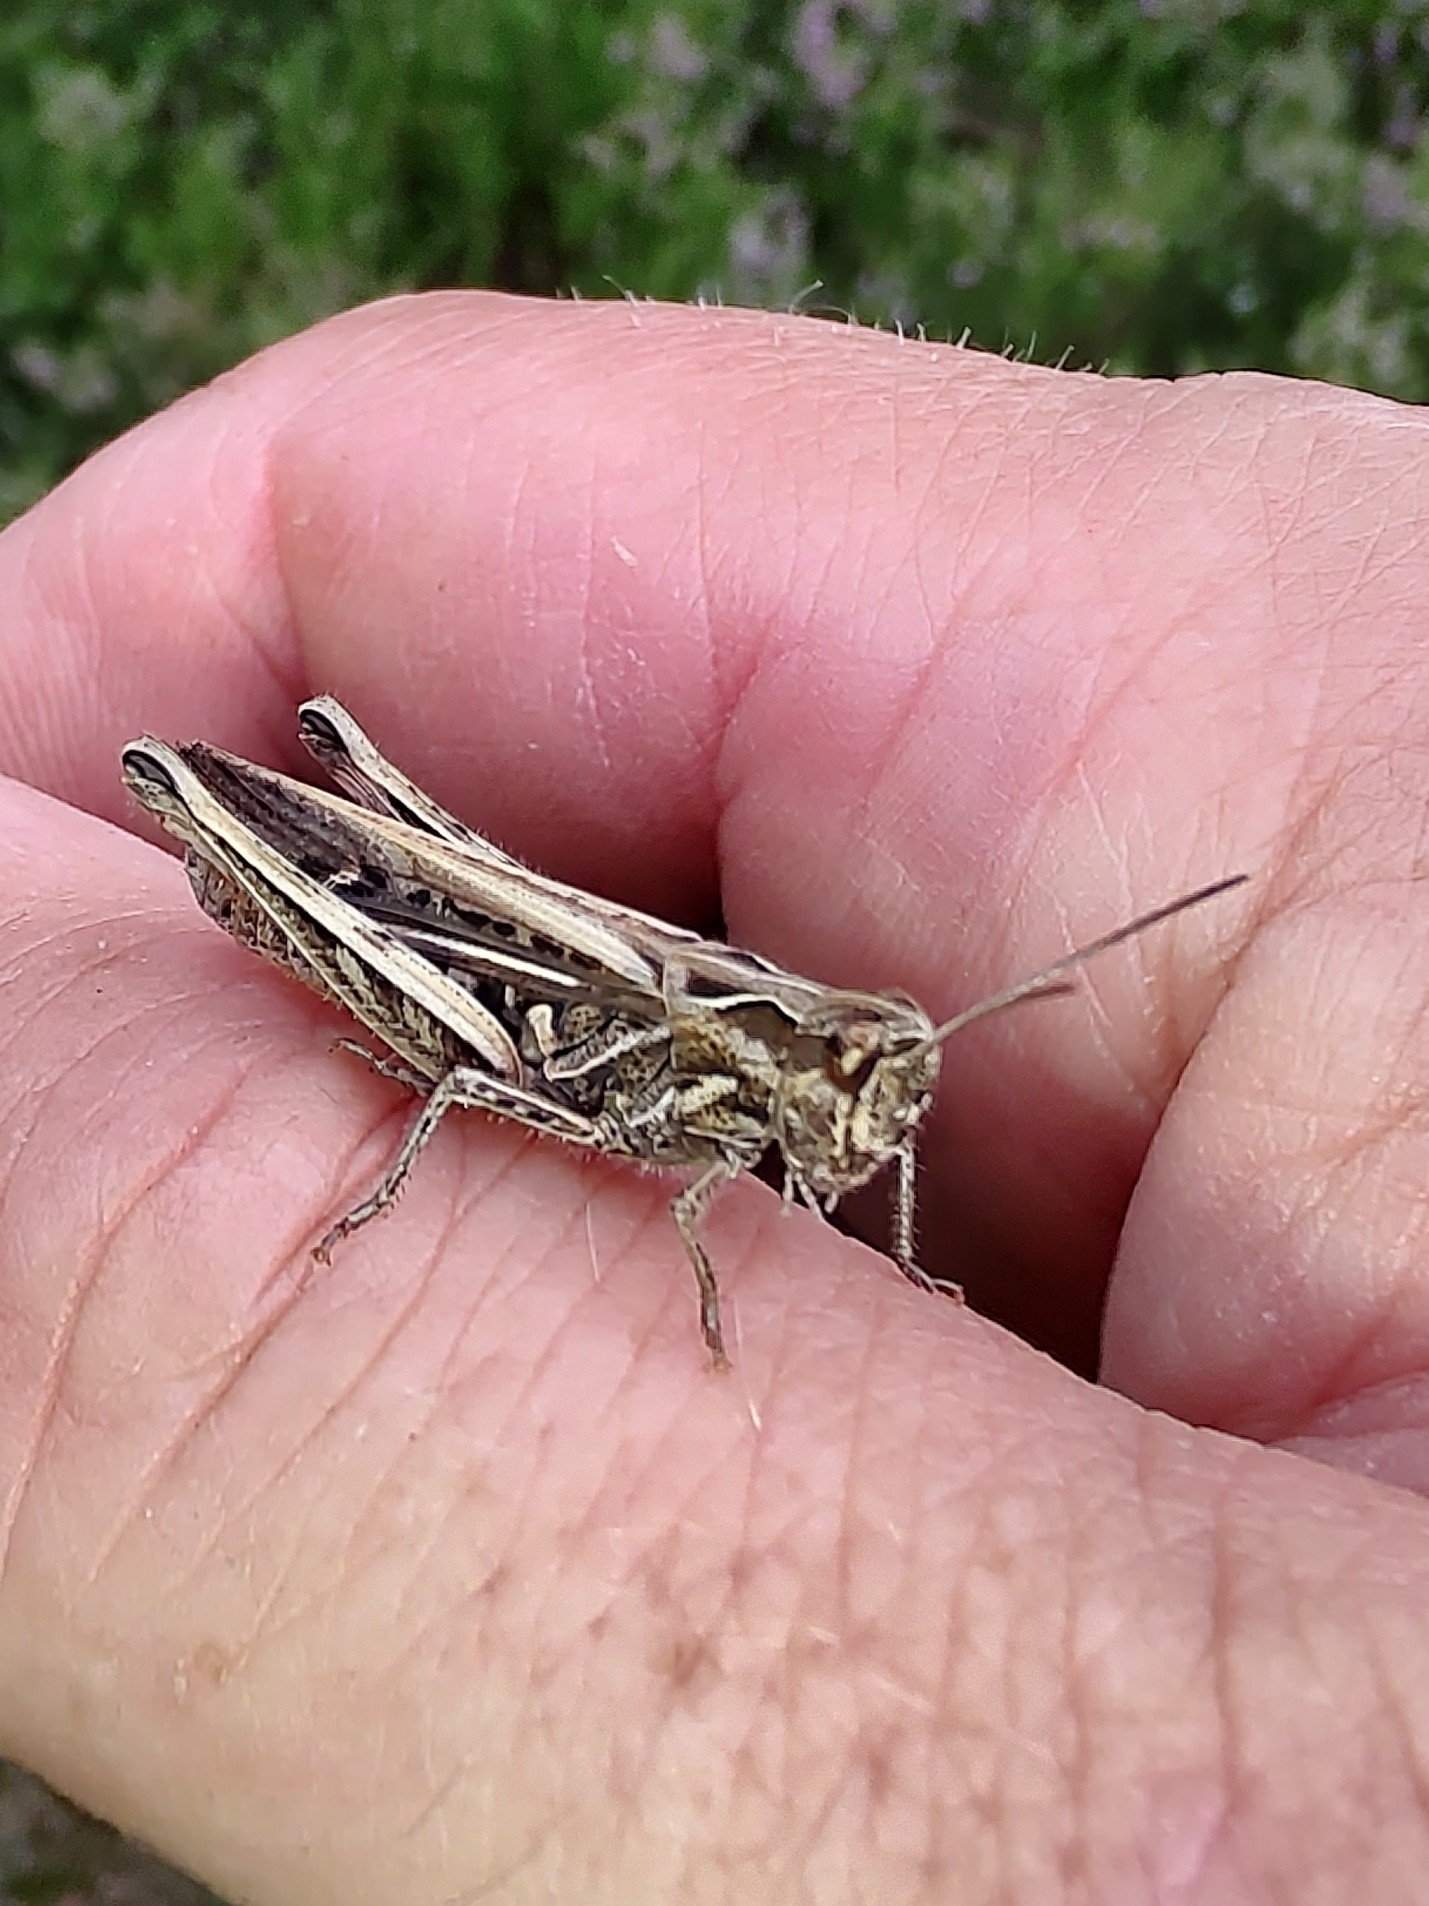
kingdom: Animalia
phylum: Arthropoda
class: Insecta
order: Orthoptera
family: Acrididae
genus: Chorthippus
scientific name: Chorthippus brunneus
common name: Field grasshopper
